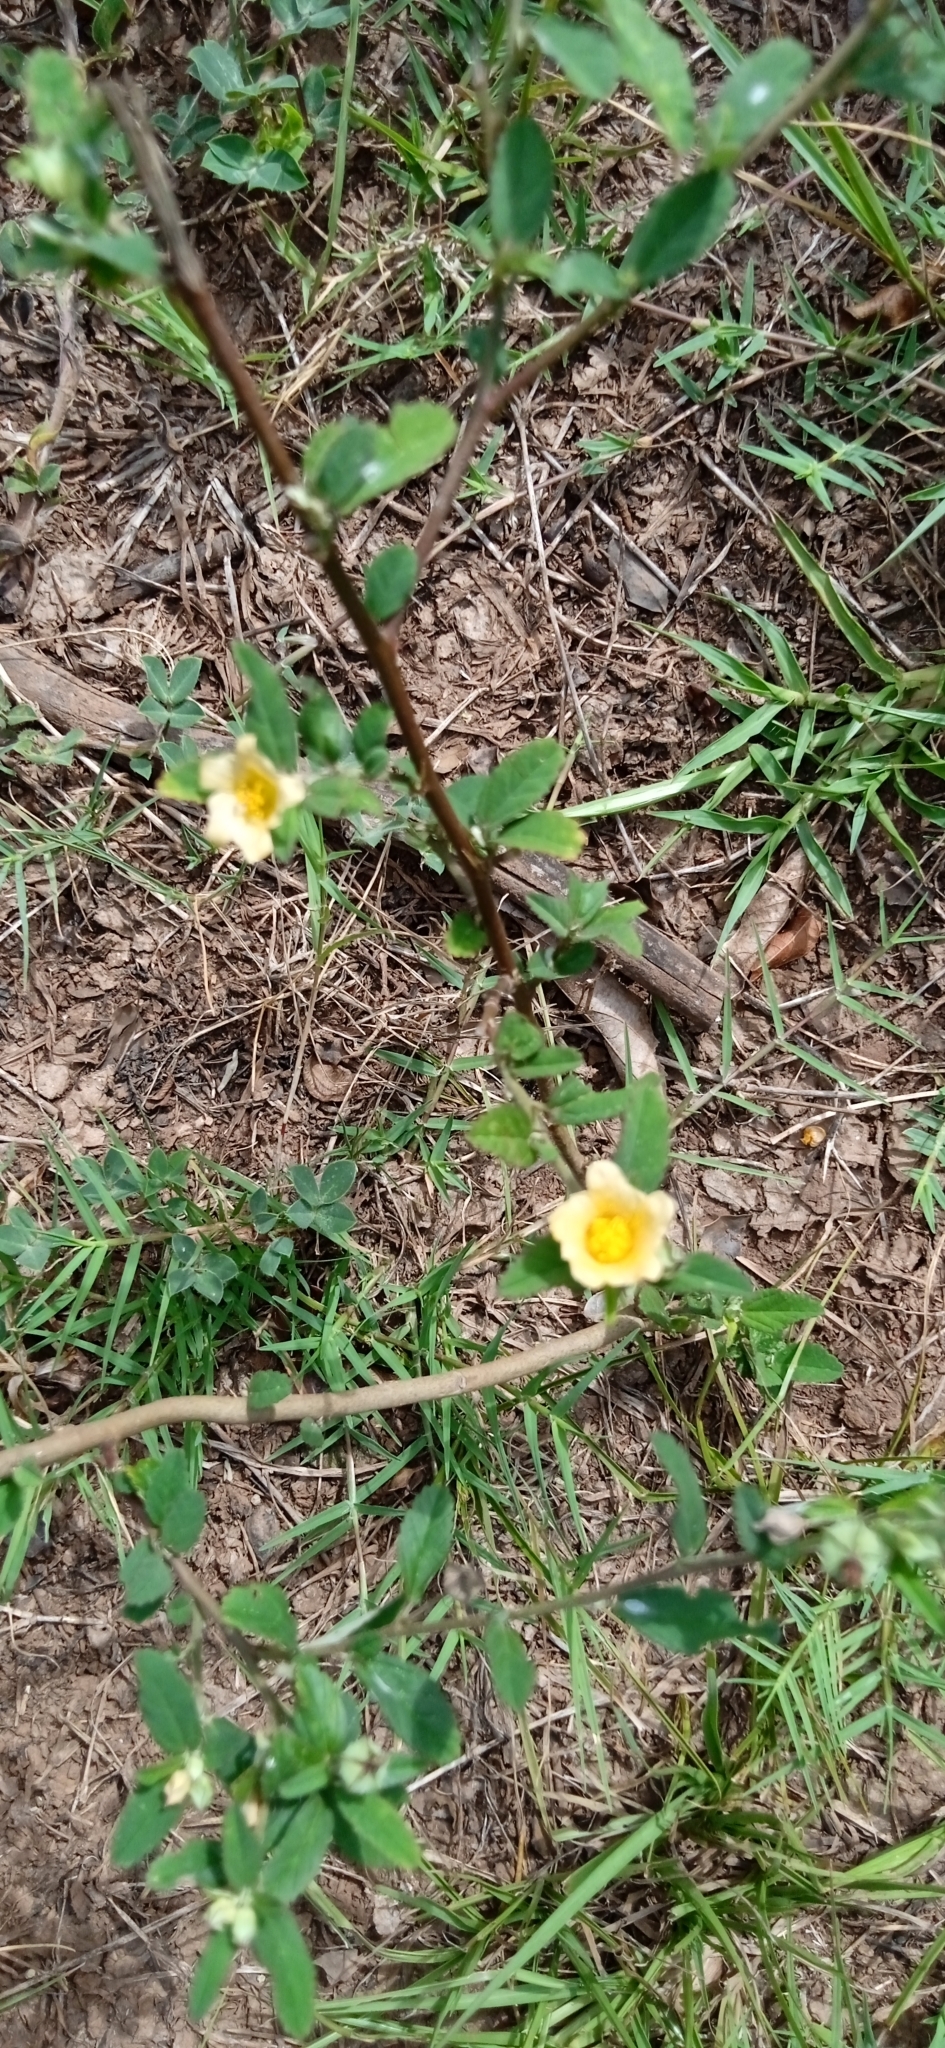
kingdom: Plantae
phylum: Tracheophyta
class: Magnoliopsida
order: Malvales
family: Malvaceae
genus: Sida
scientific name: Sida rhombifolia
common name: Queensland-hemp
